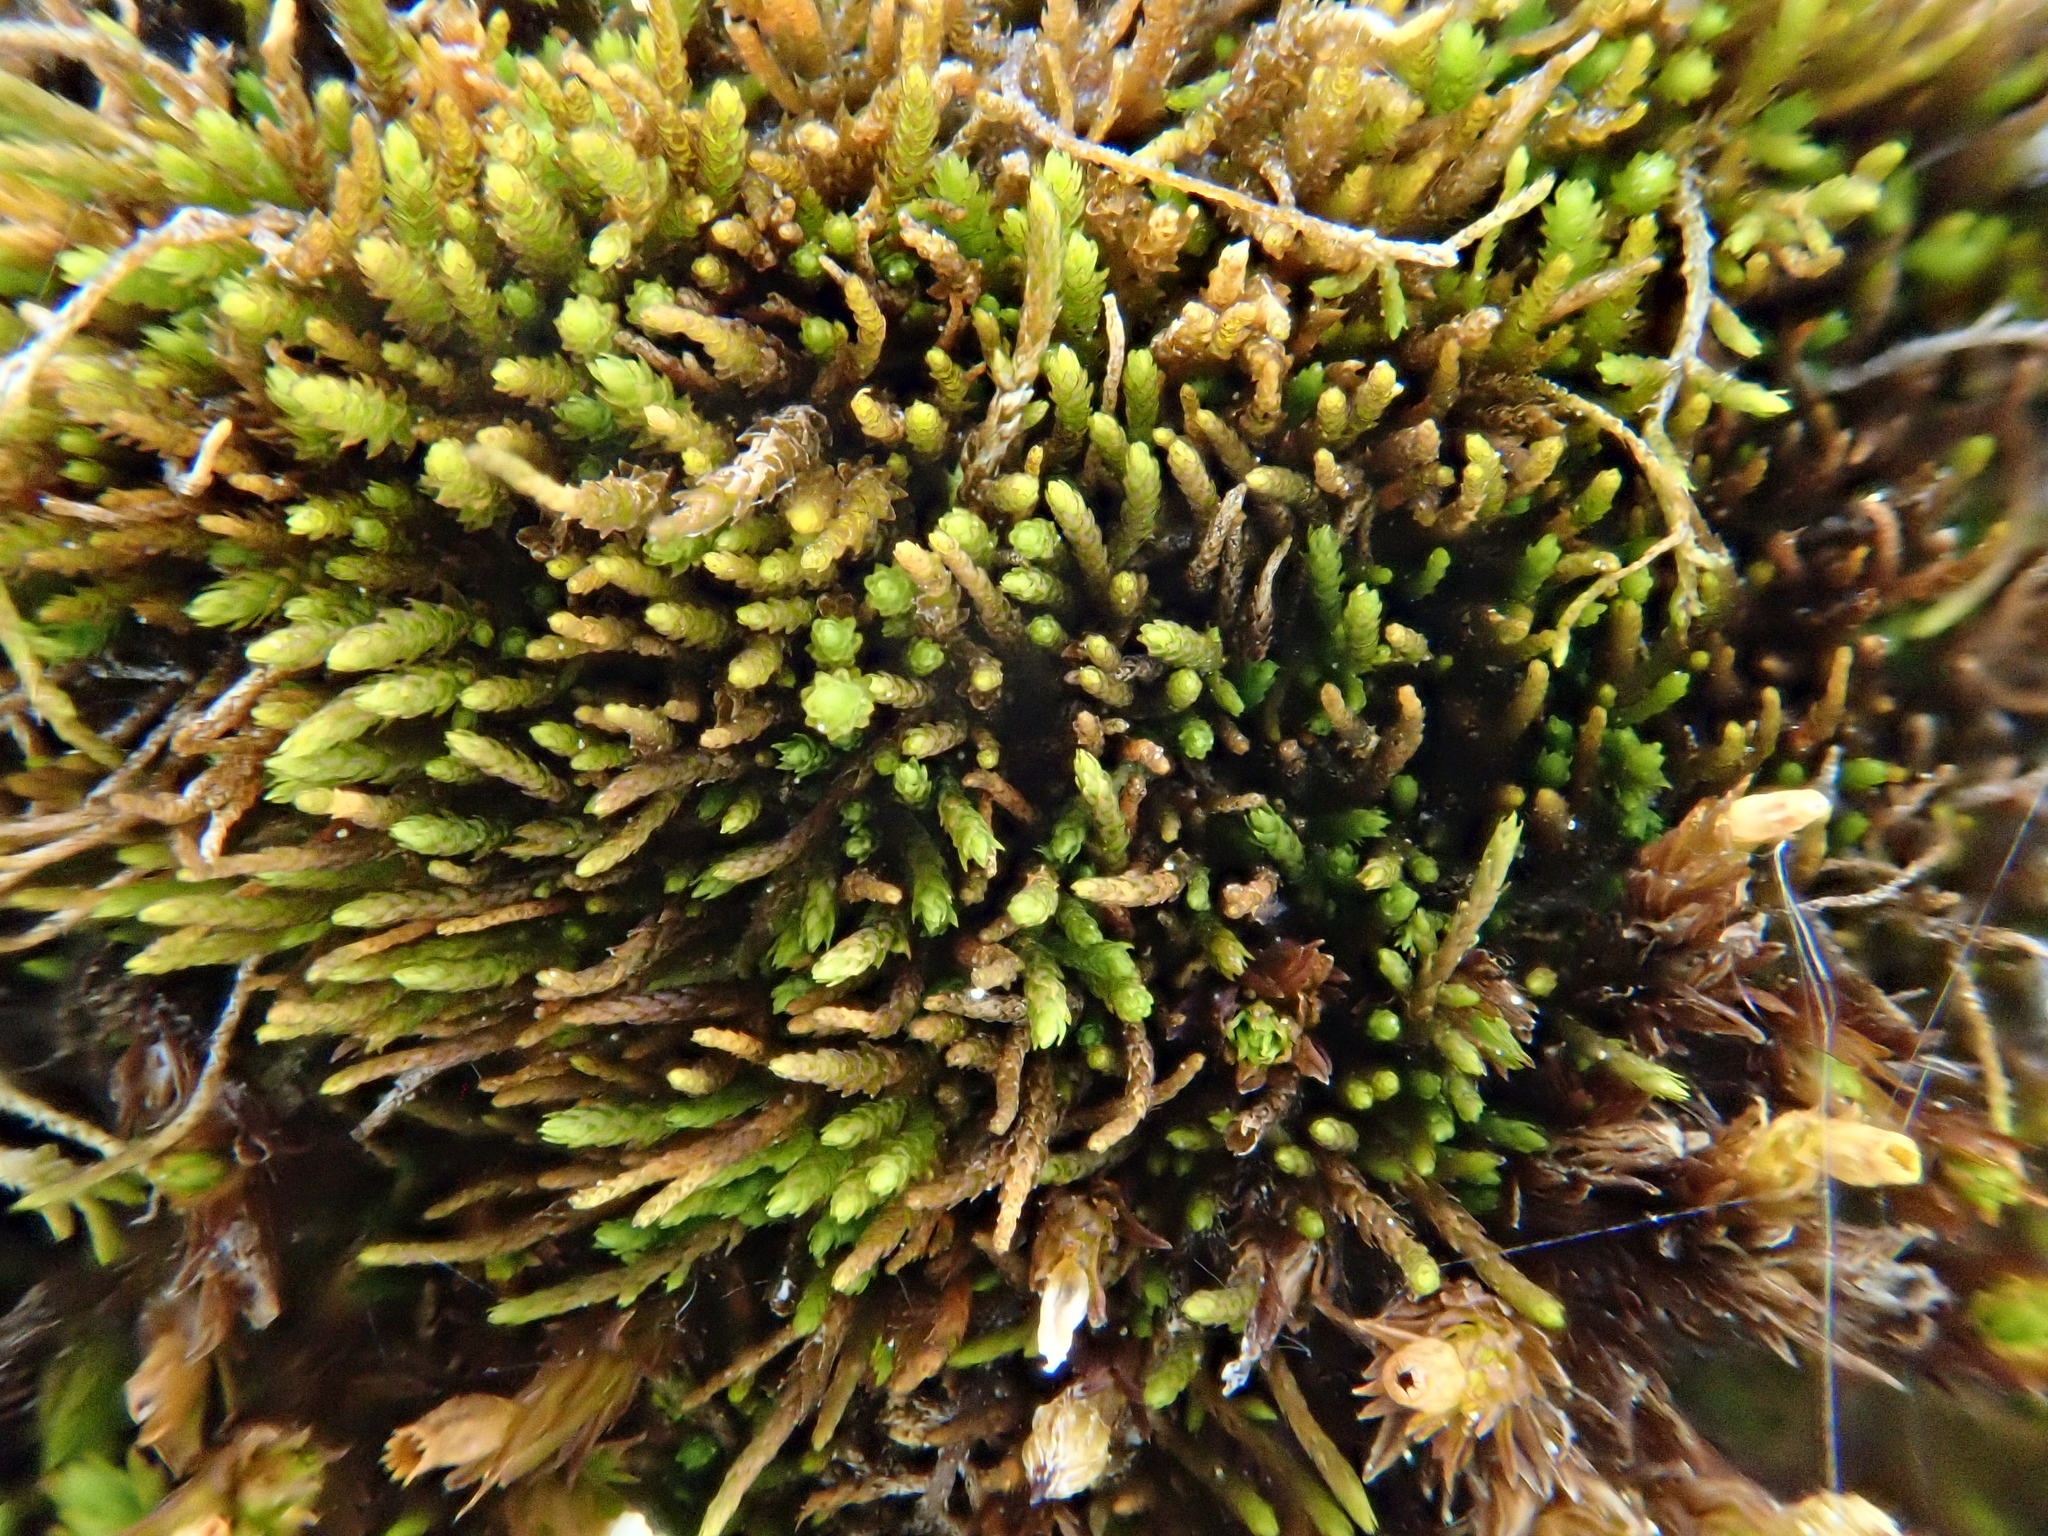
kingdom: Plantae
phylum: Bryophyta
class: Bryopsida
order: Hypnales
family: Pseudoleskeellaceae
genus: Pseudoleskeella
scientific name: Pseudoleskeella catenulata
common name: Chained leskea
